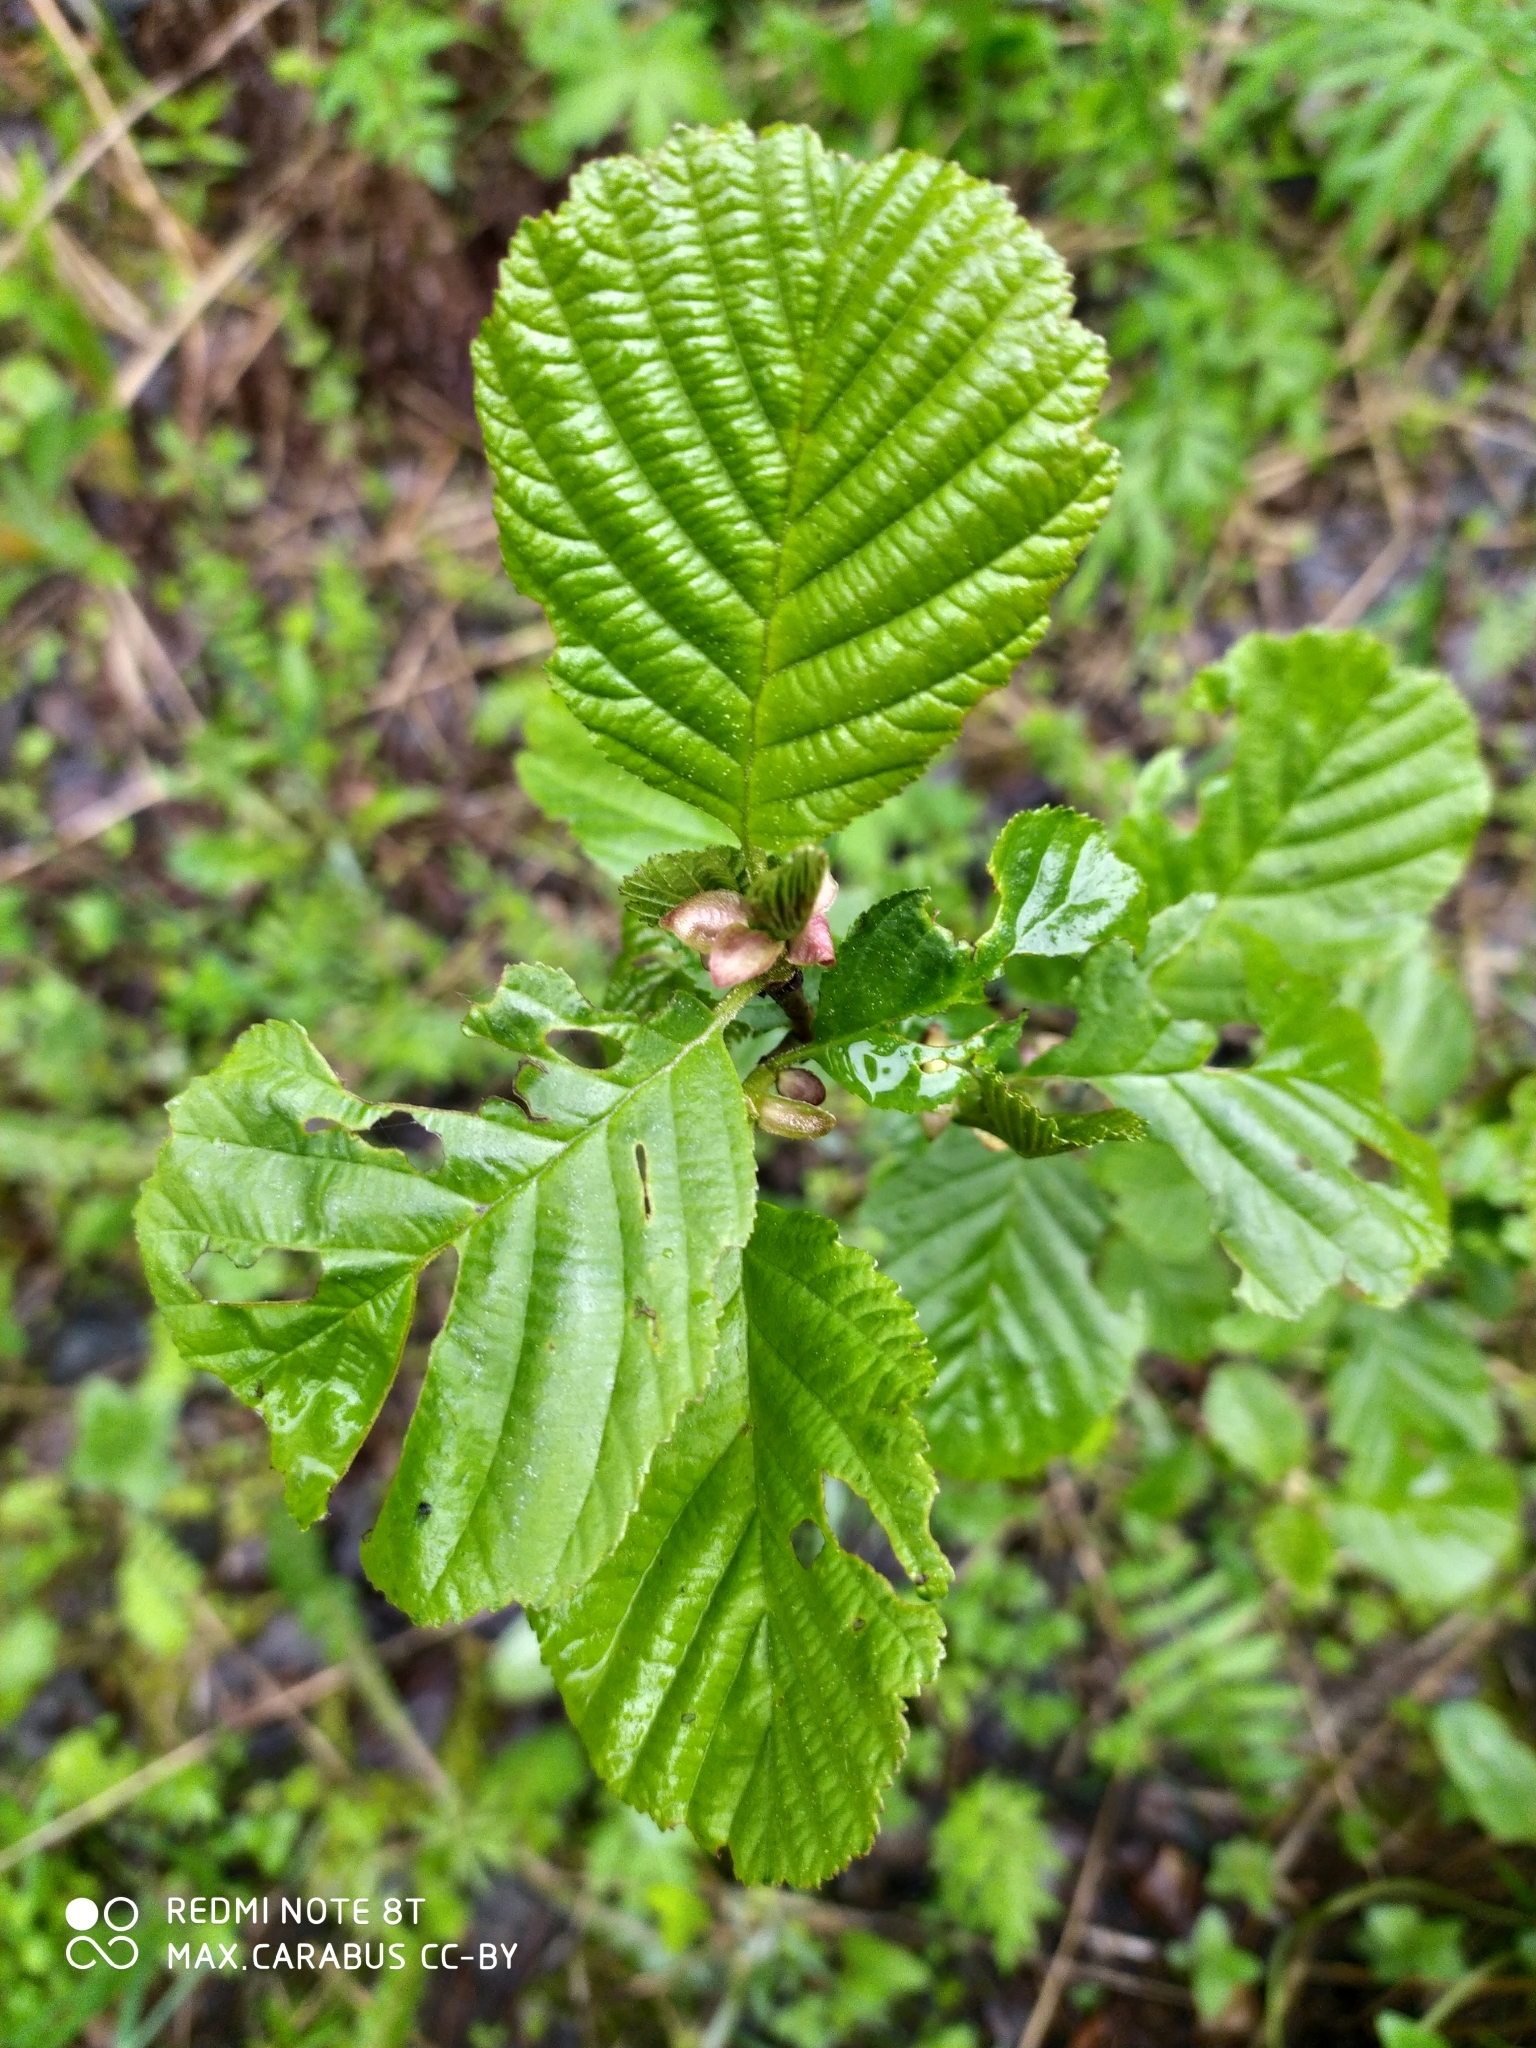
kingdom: Plantae
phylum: Tracheophyta
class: Magnoliopsida
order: Fagales
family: Betulaceae
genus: Alnus
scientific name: Alnus glutinosa
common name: Black alder
